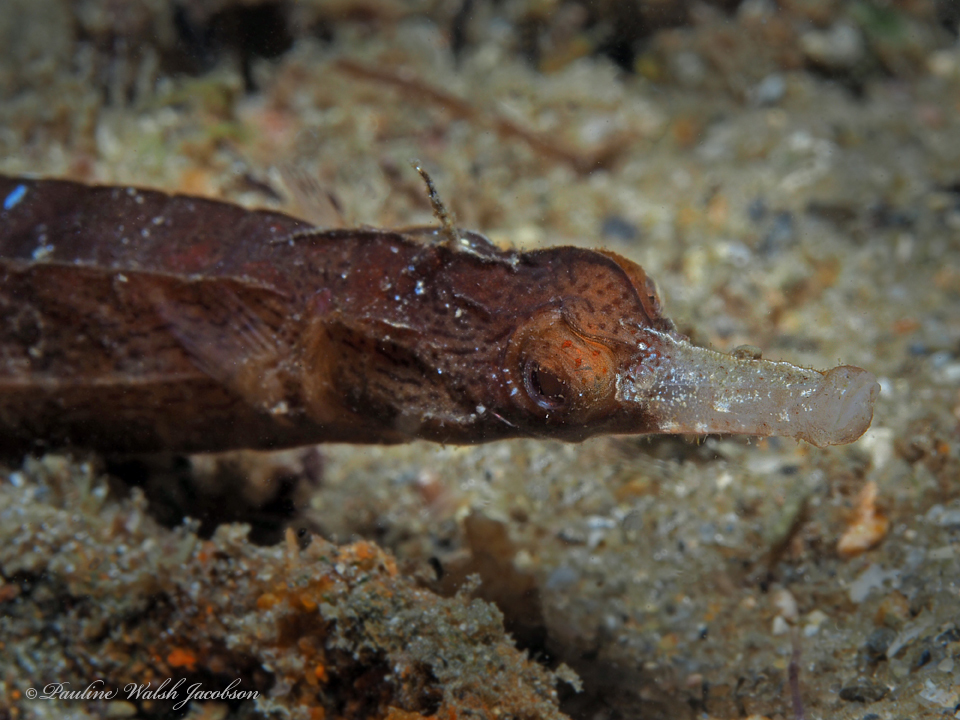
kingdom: Animalia
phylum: Chordata
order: Syngnathiformes
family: Syngnathidae
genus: Cosmocampus
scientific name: Cosmocampus albirostris
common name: White-nose pipefish
